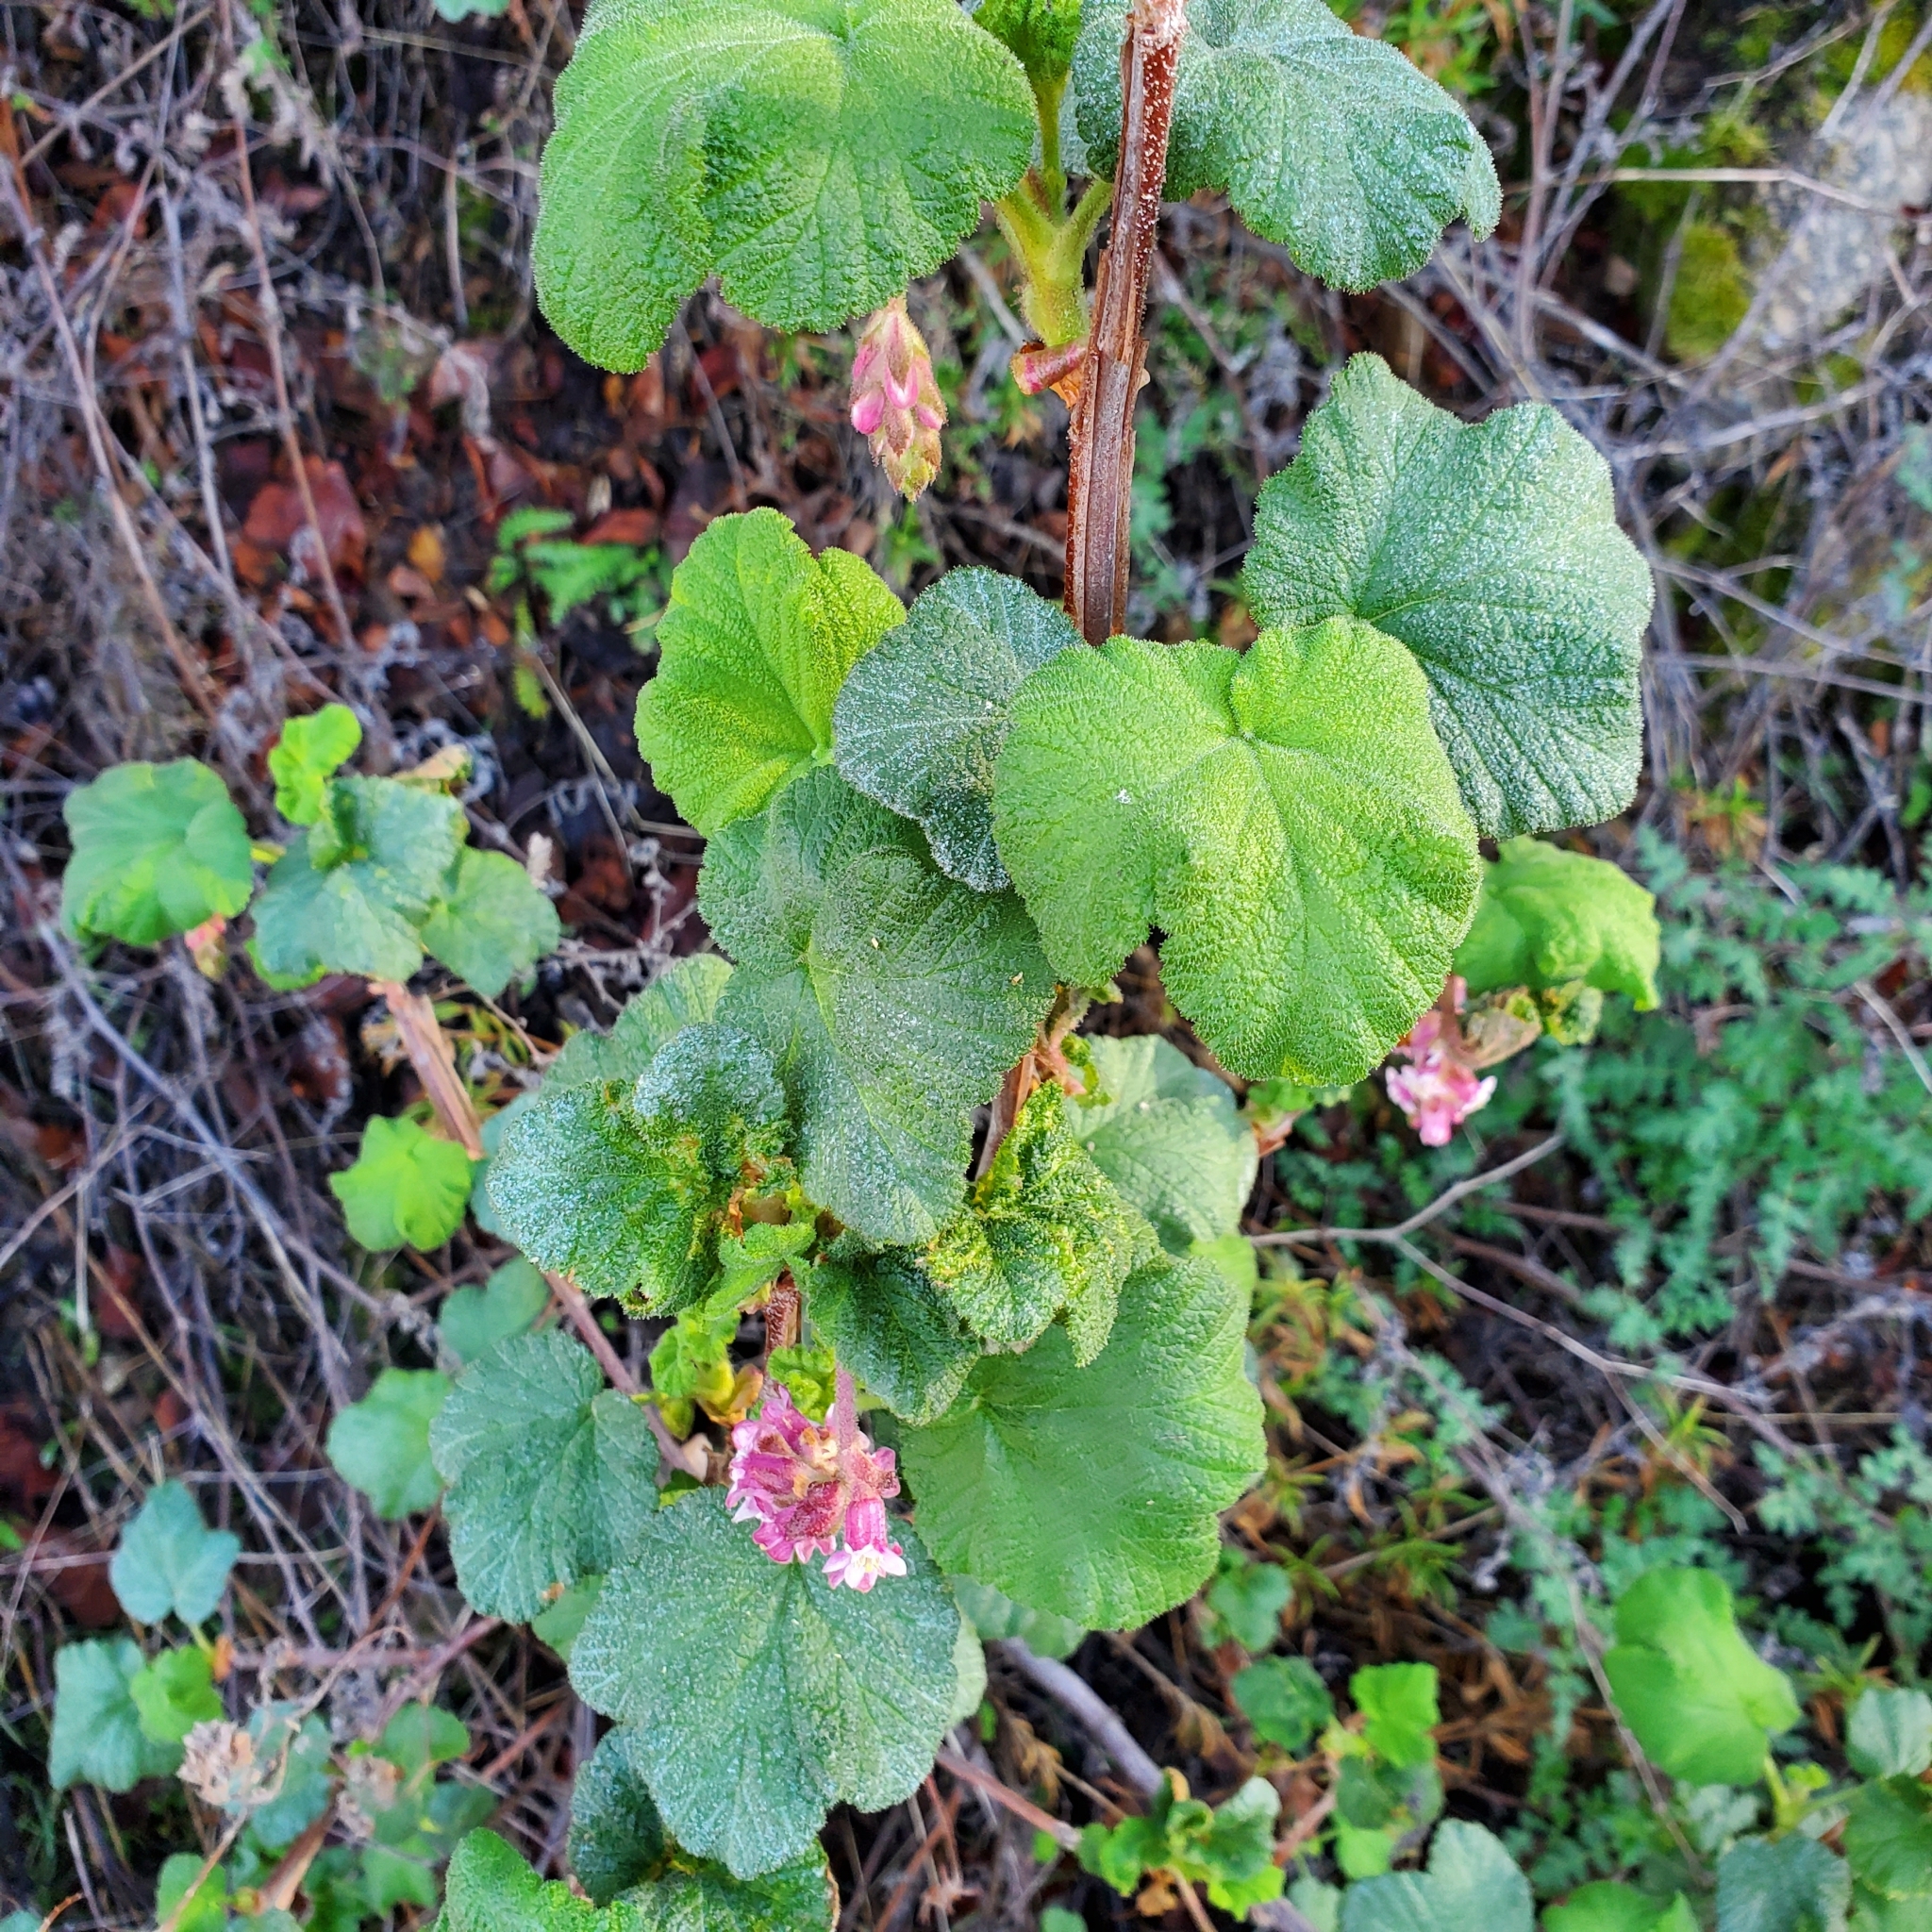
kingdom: Plantae
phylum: Tracheophyta
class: Magnoliopsida
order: Saxifragales
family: Grossulariaceae
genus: Ribes
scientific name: Ribes malvaceum
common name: Chaparral currant
